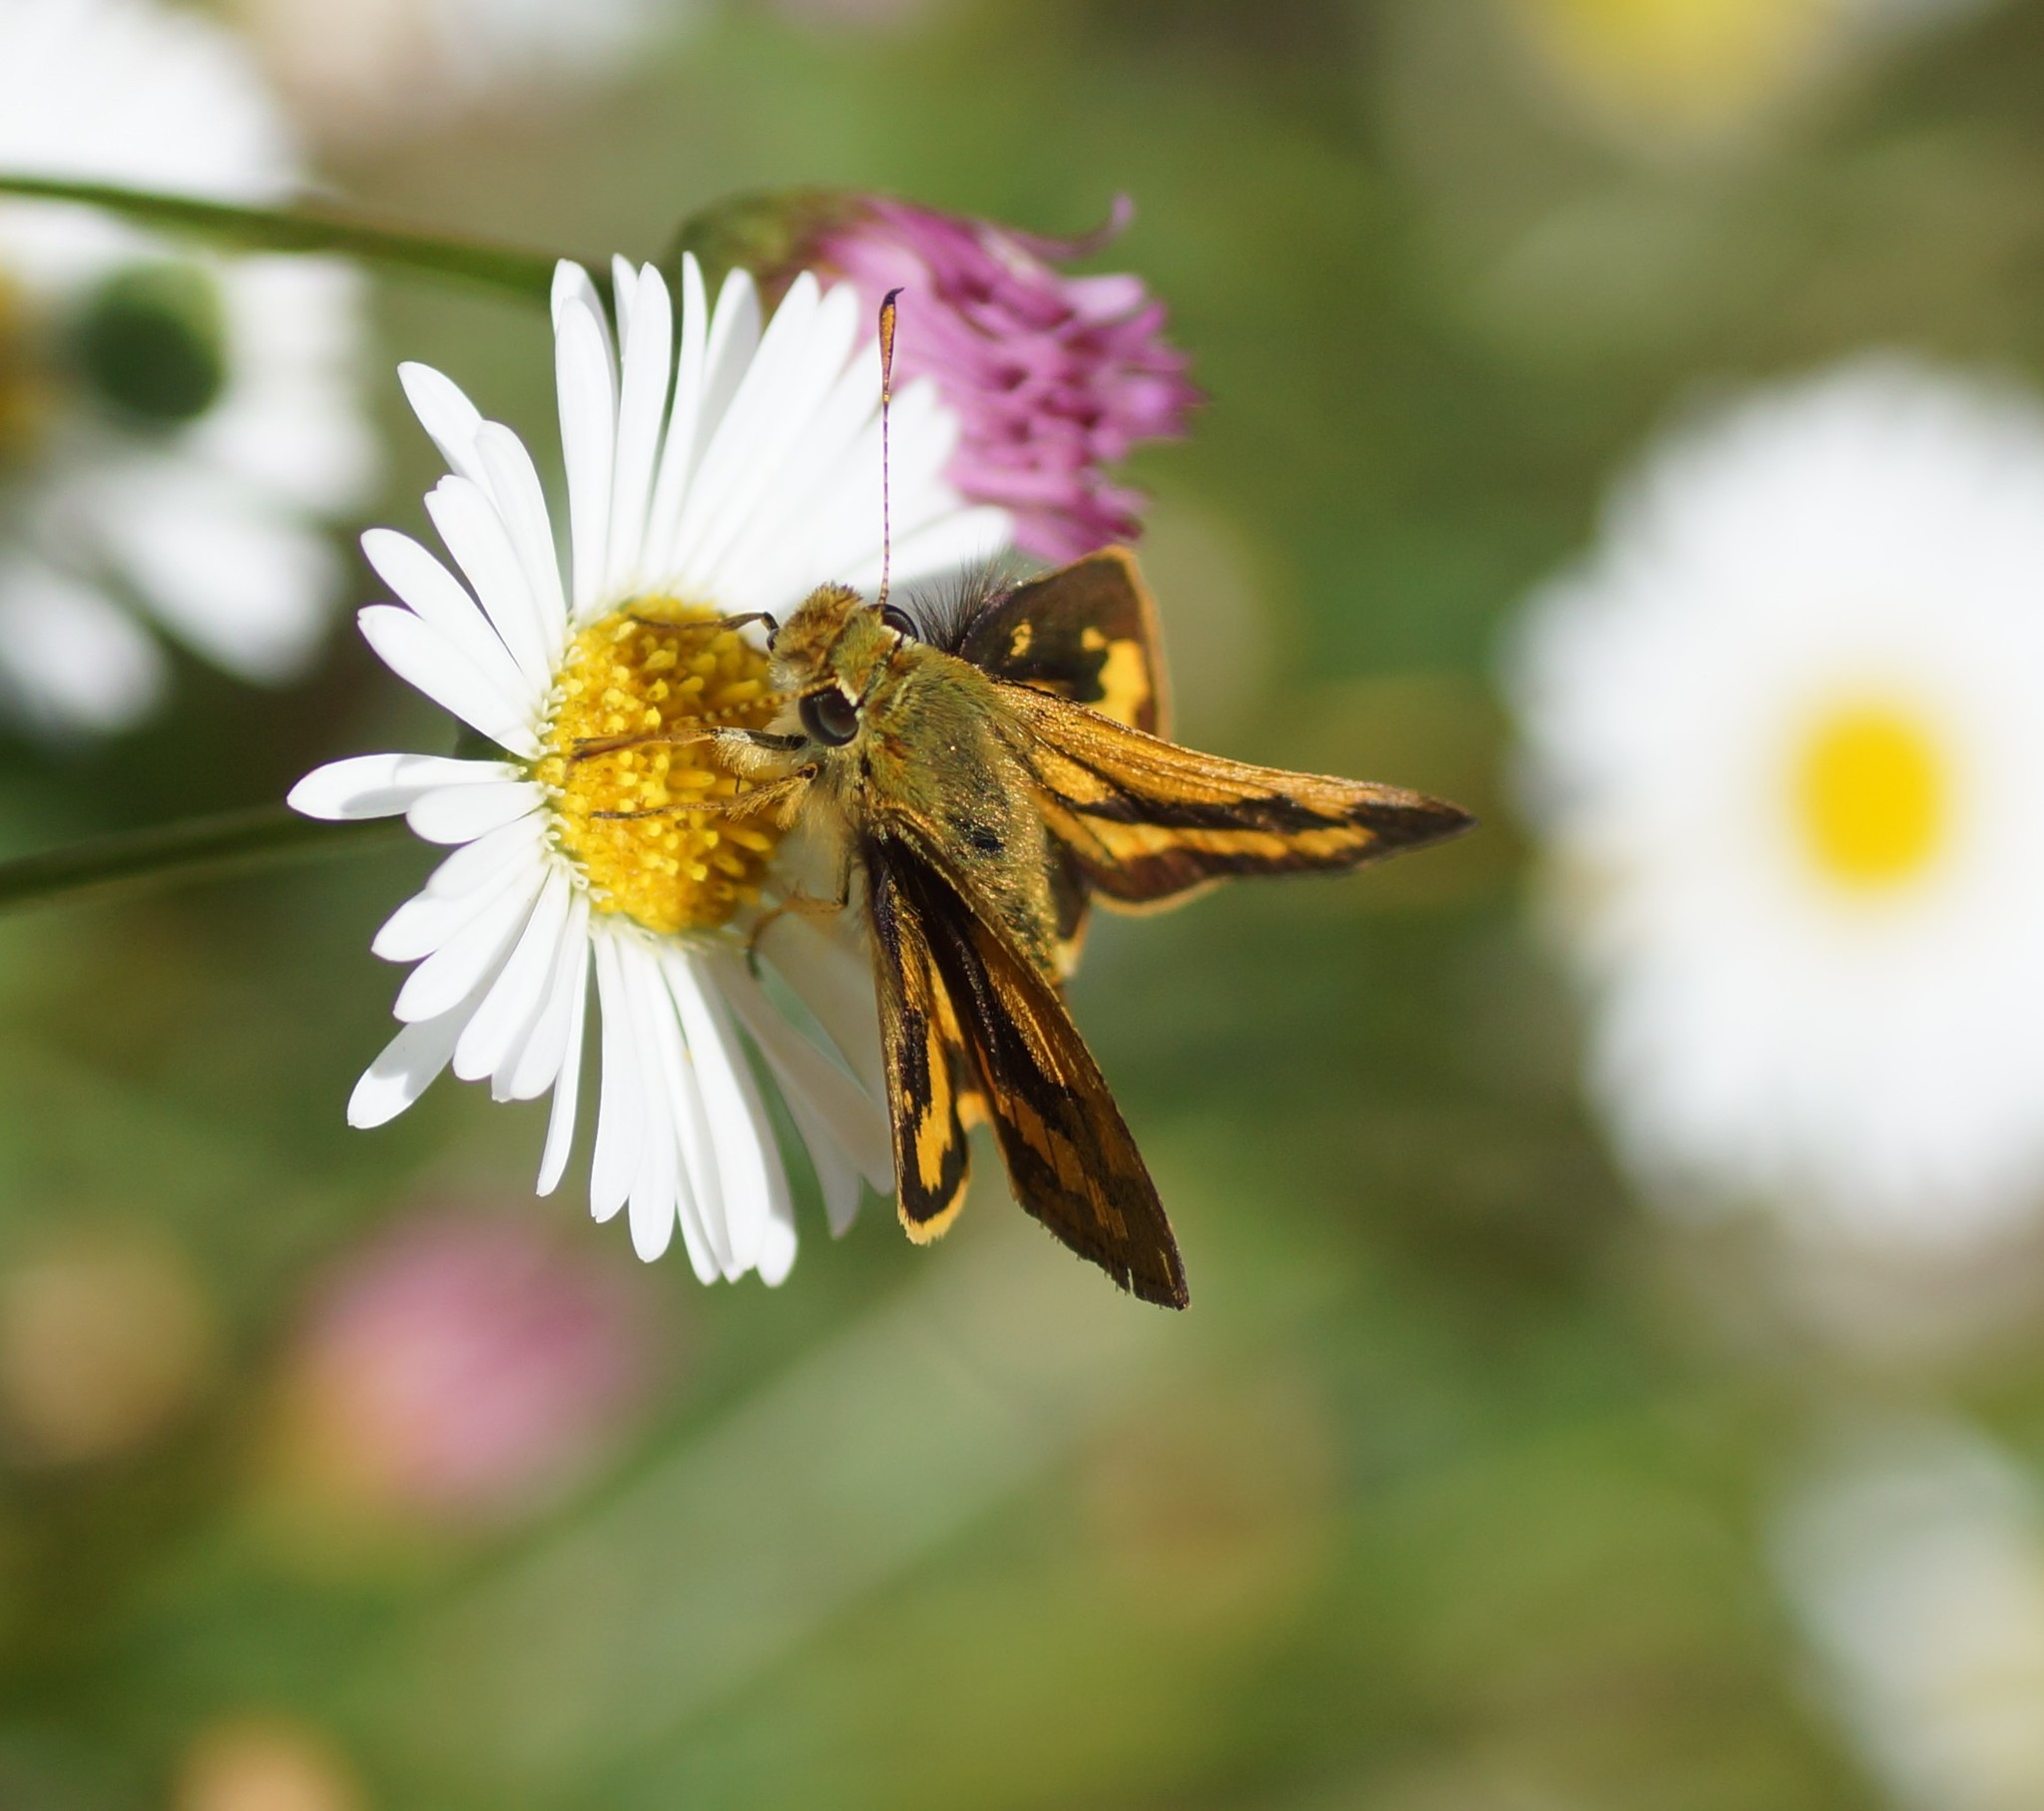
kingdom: Animalia
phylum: Arthropoda
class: Insecta
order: Lepidoptera
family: Hesperiidae
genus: Ocybadistes
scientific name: Ocybadistes walkeri
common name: Yellow-banded dart
